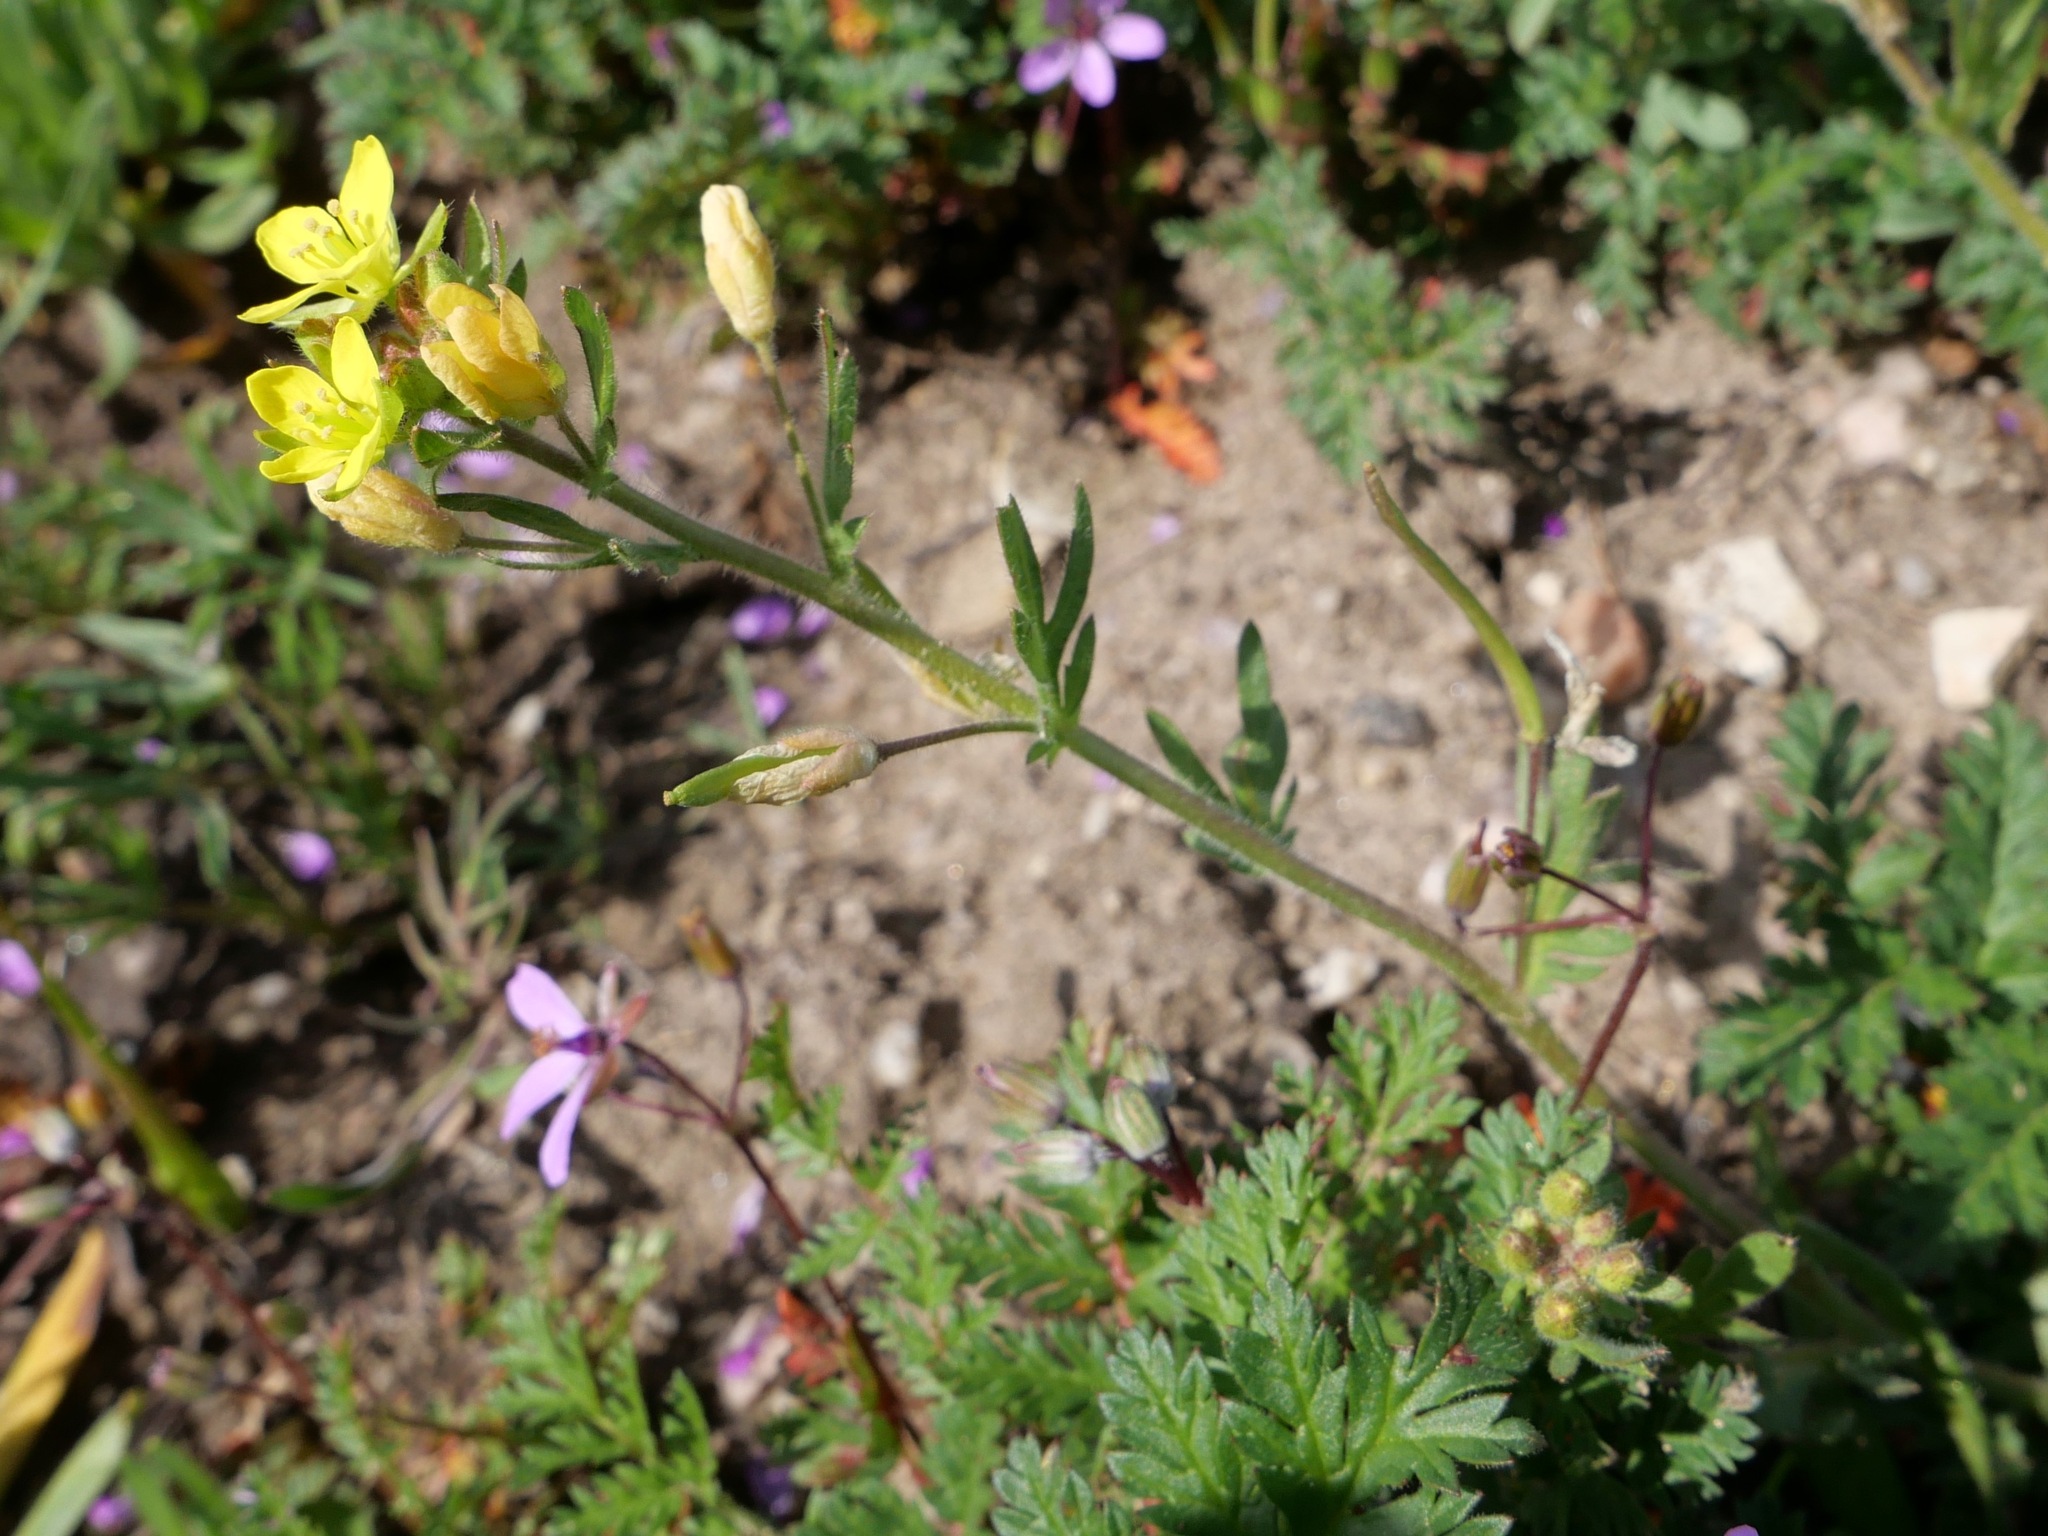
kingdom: Plantae
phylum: Tracheophyta
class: Magnoliopsida
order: Brassicales
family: Brassicaceae
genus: Tropidocarpum
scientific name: Tropidocarpum gracile
